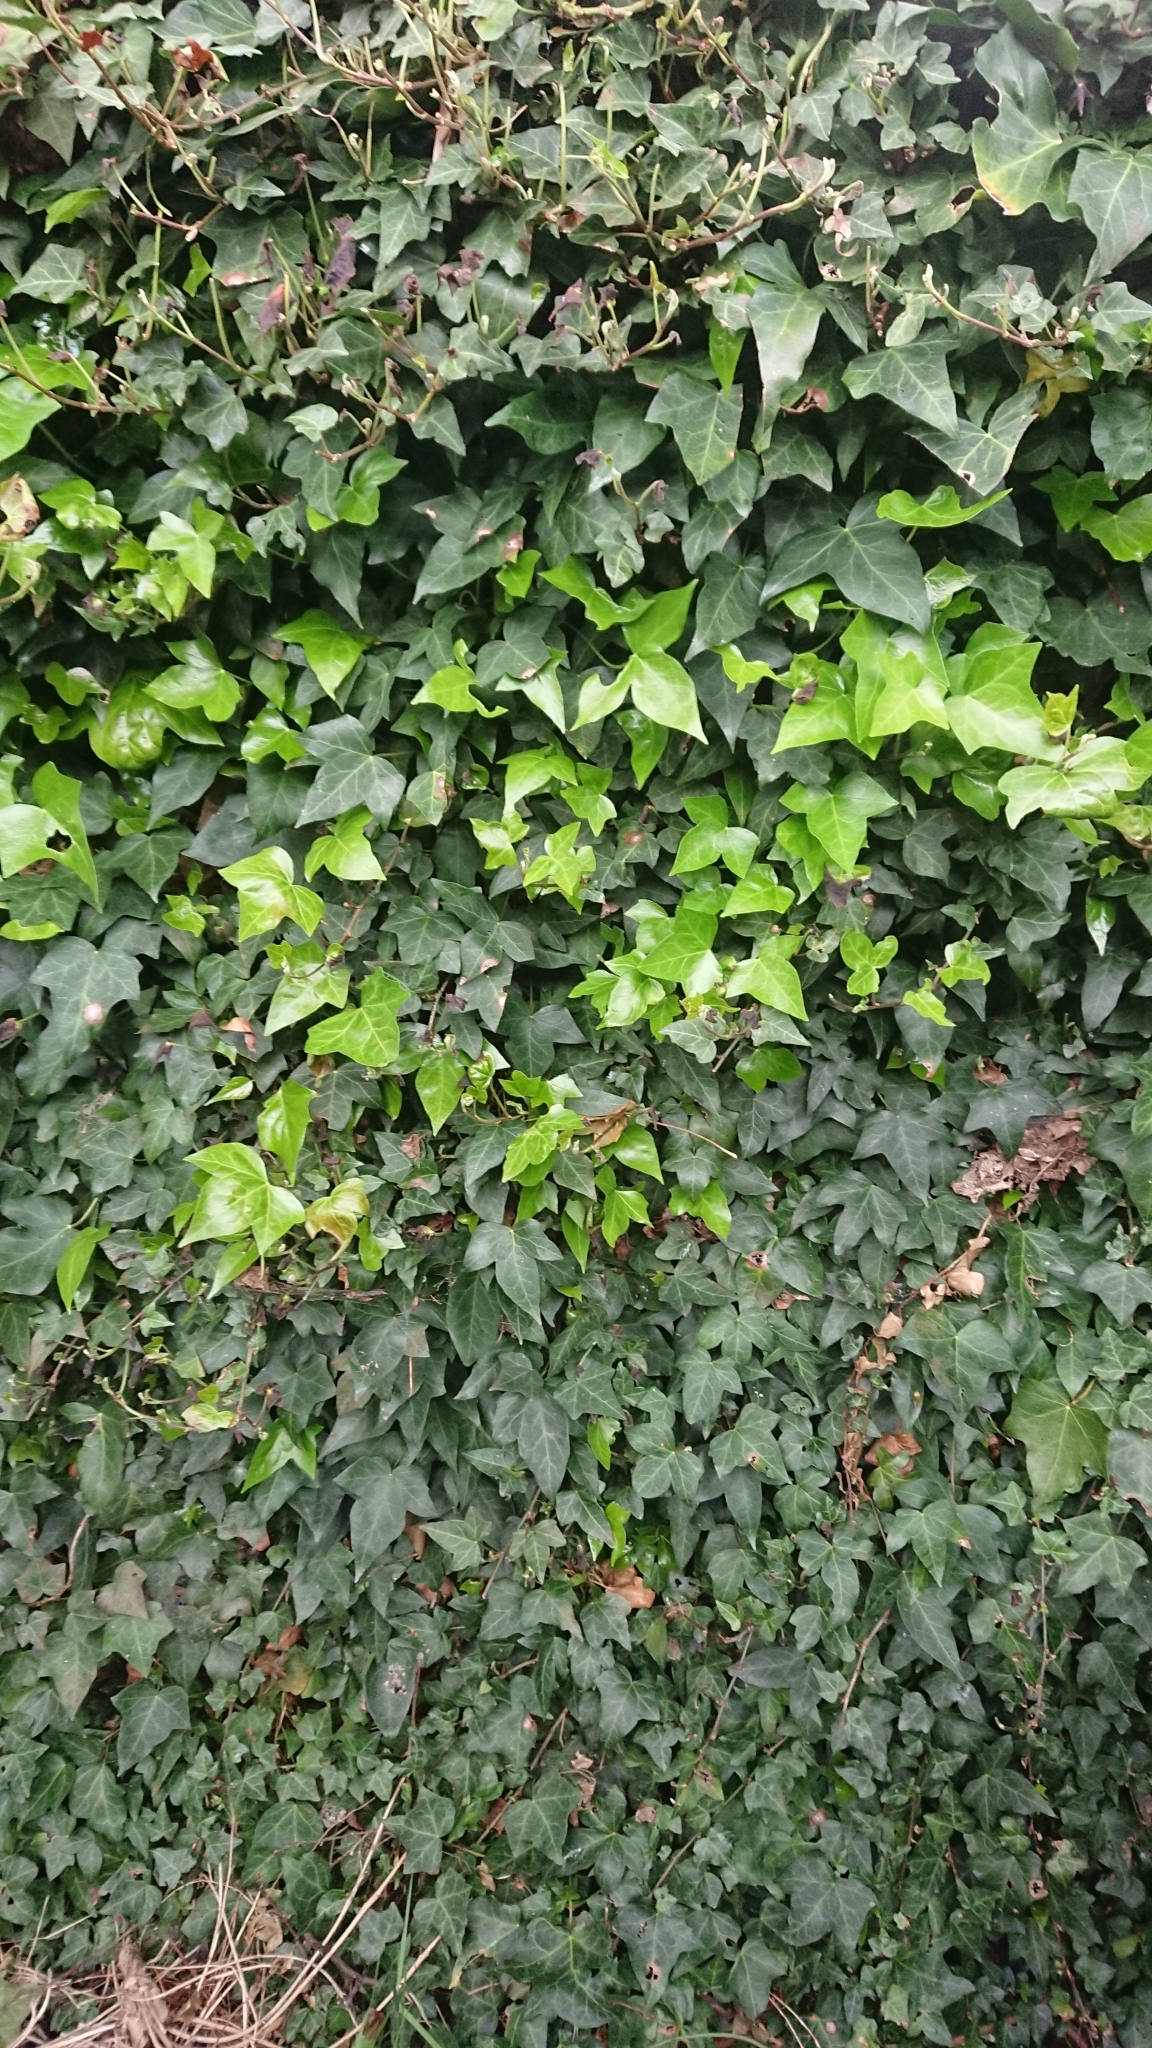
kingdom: Plantae
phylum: Tracheophyta
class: Magnoliopsida
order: Apiales
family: Araliaceae
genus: Hedera
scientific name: Hedera helix
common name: Ivy
